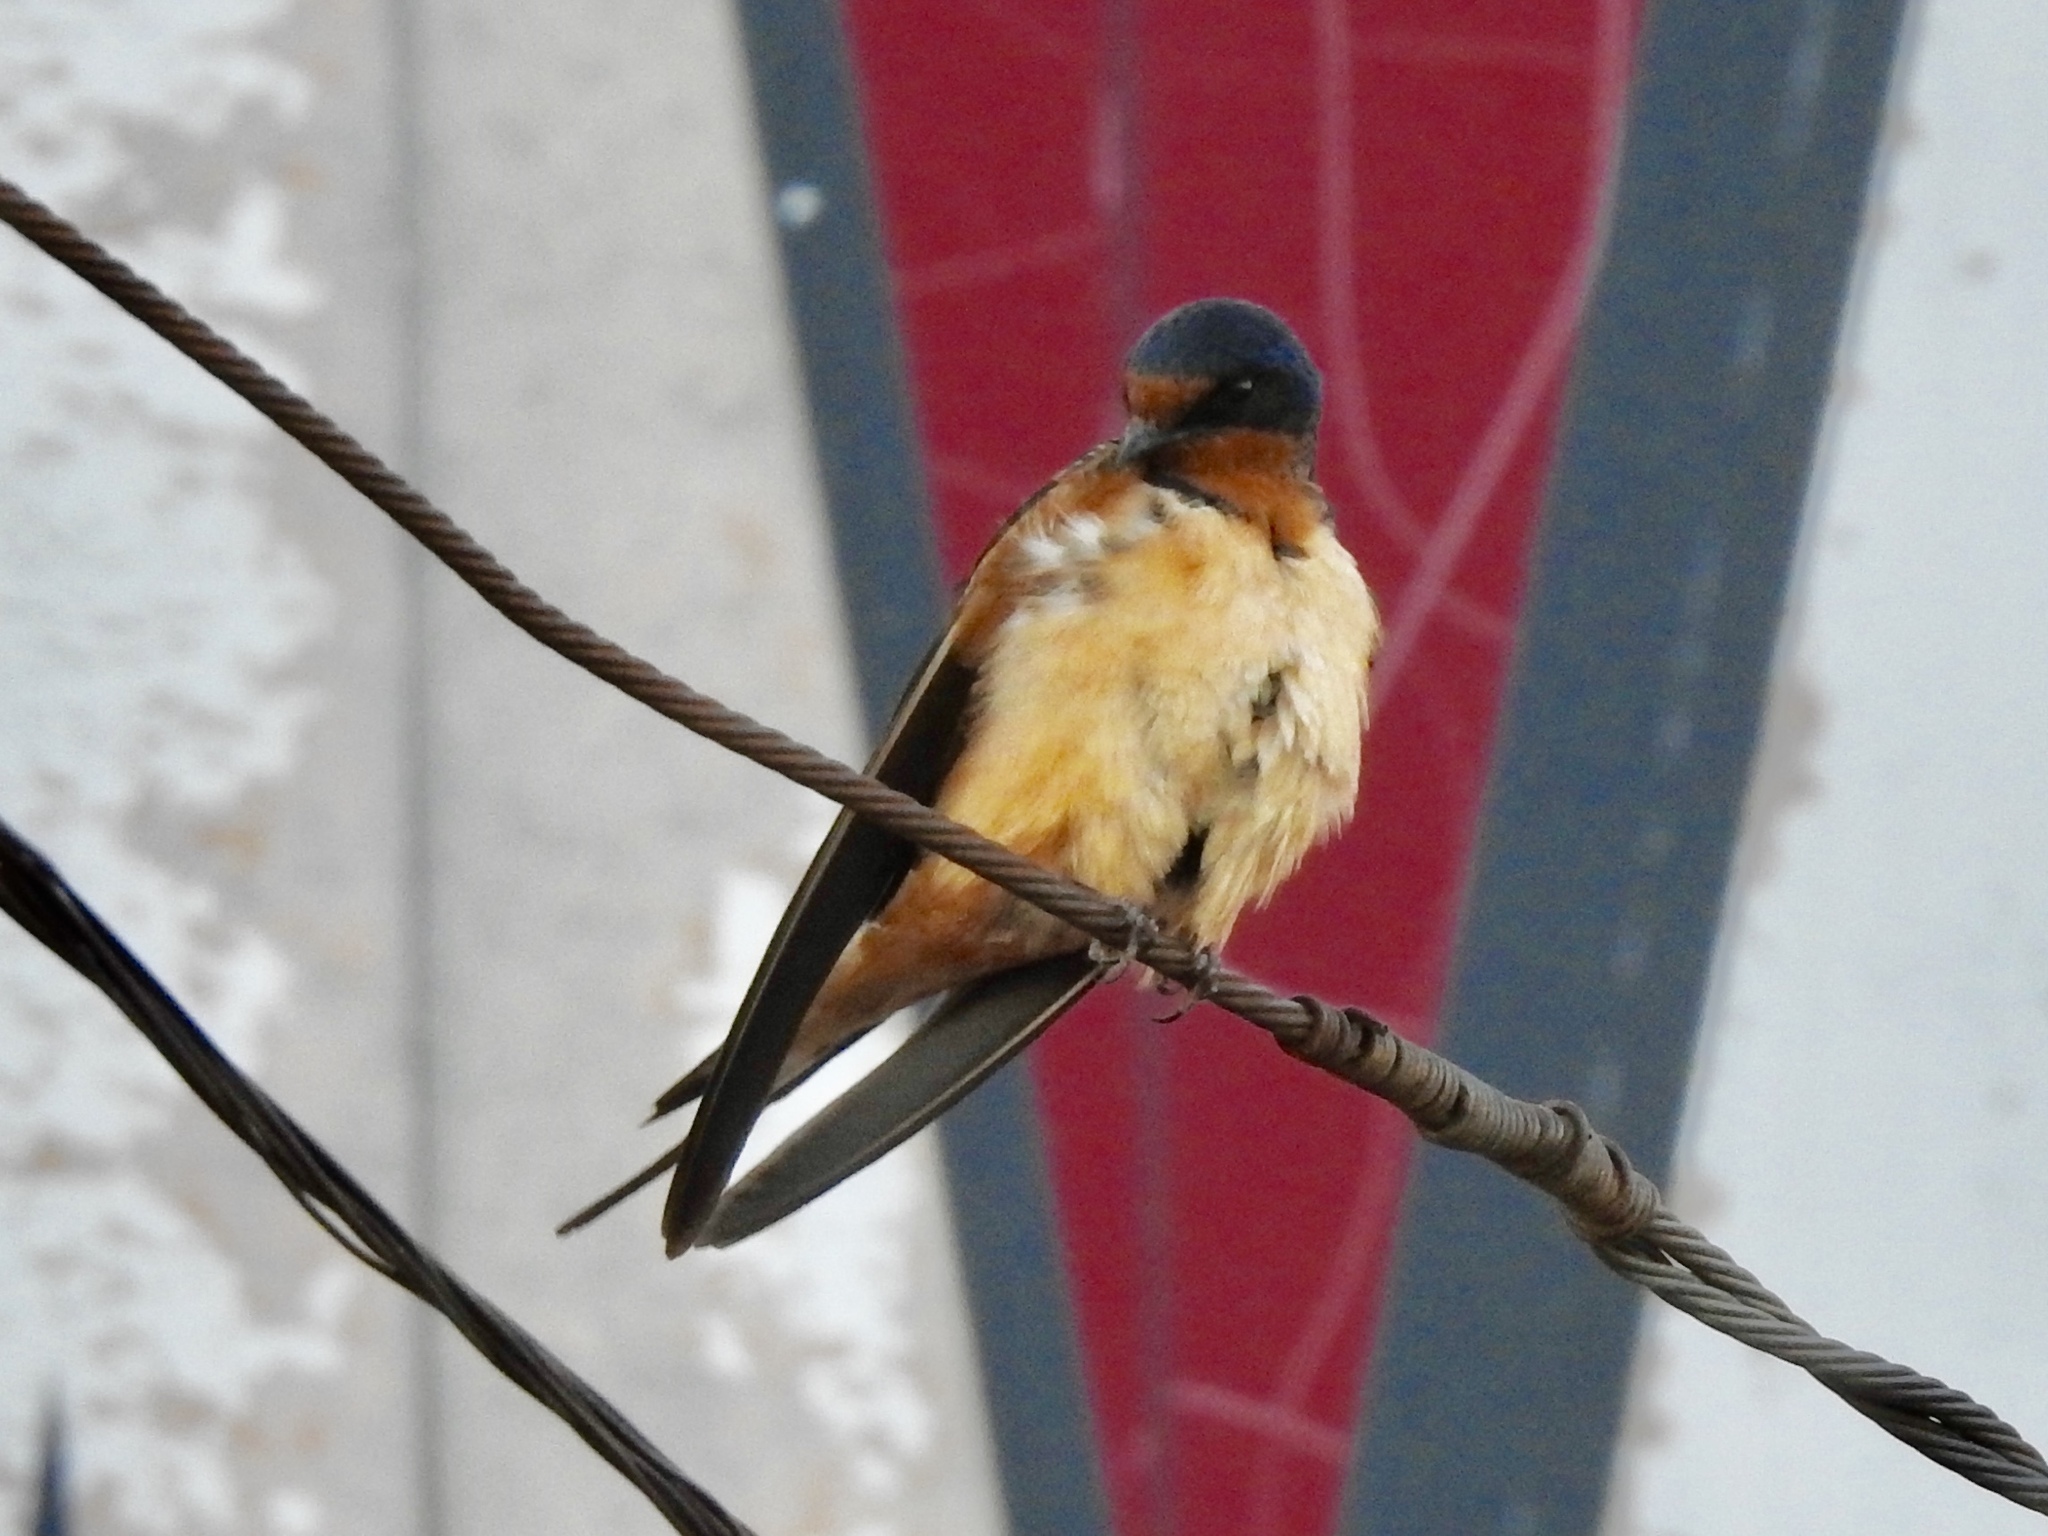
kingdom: Animalia
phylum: Chordata
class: Aves
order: Passeriformes
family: Hirundinidae
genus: Hirundo
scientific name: Hirundo rustica
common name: Barn swallow
